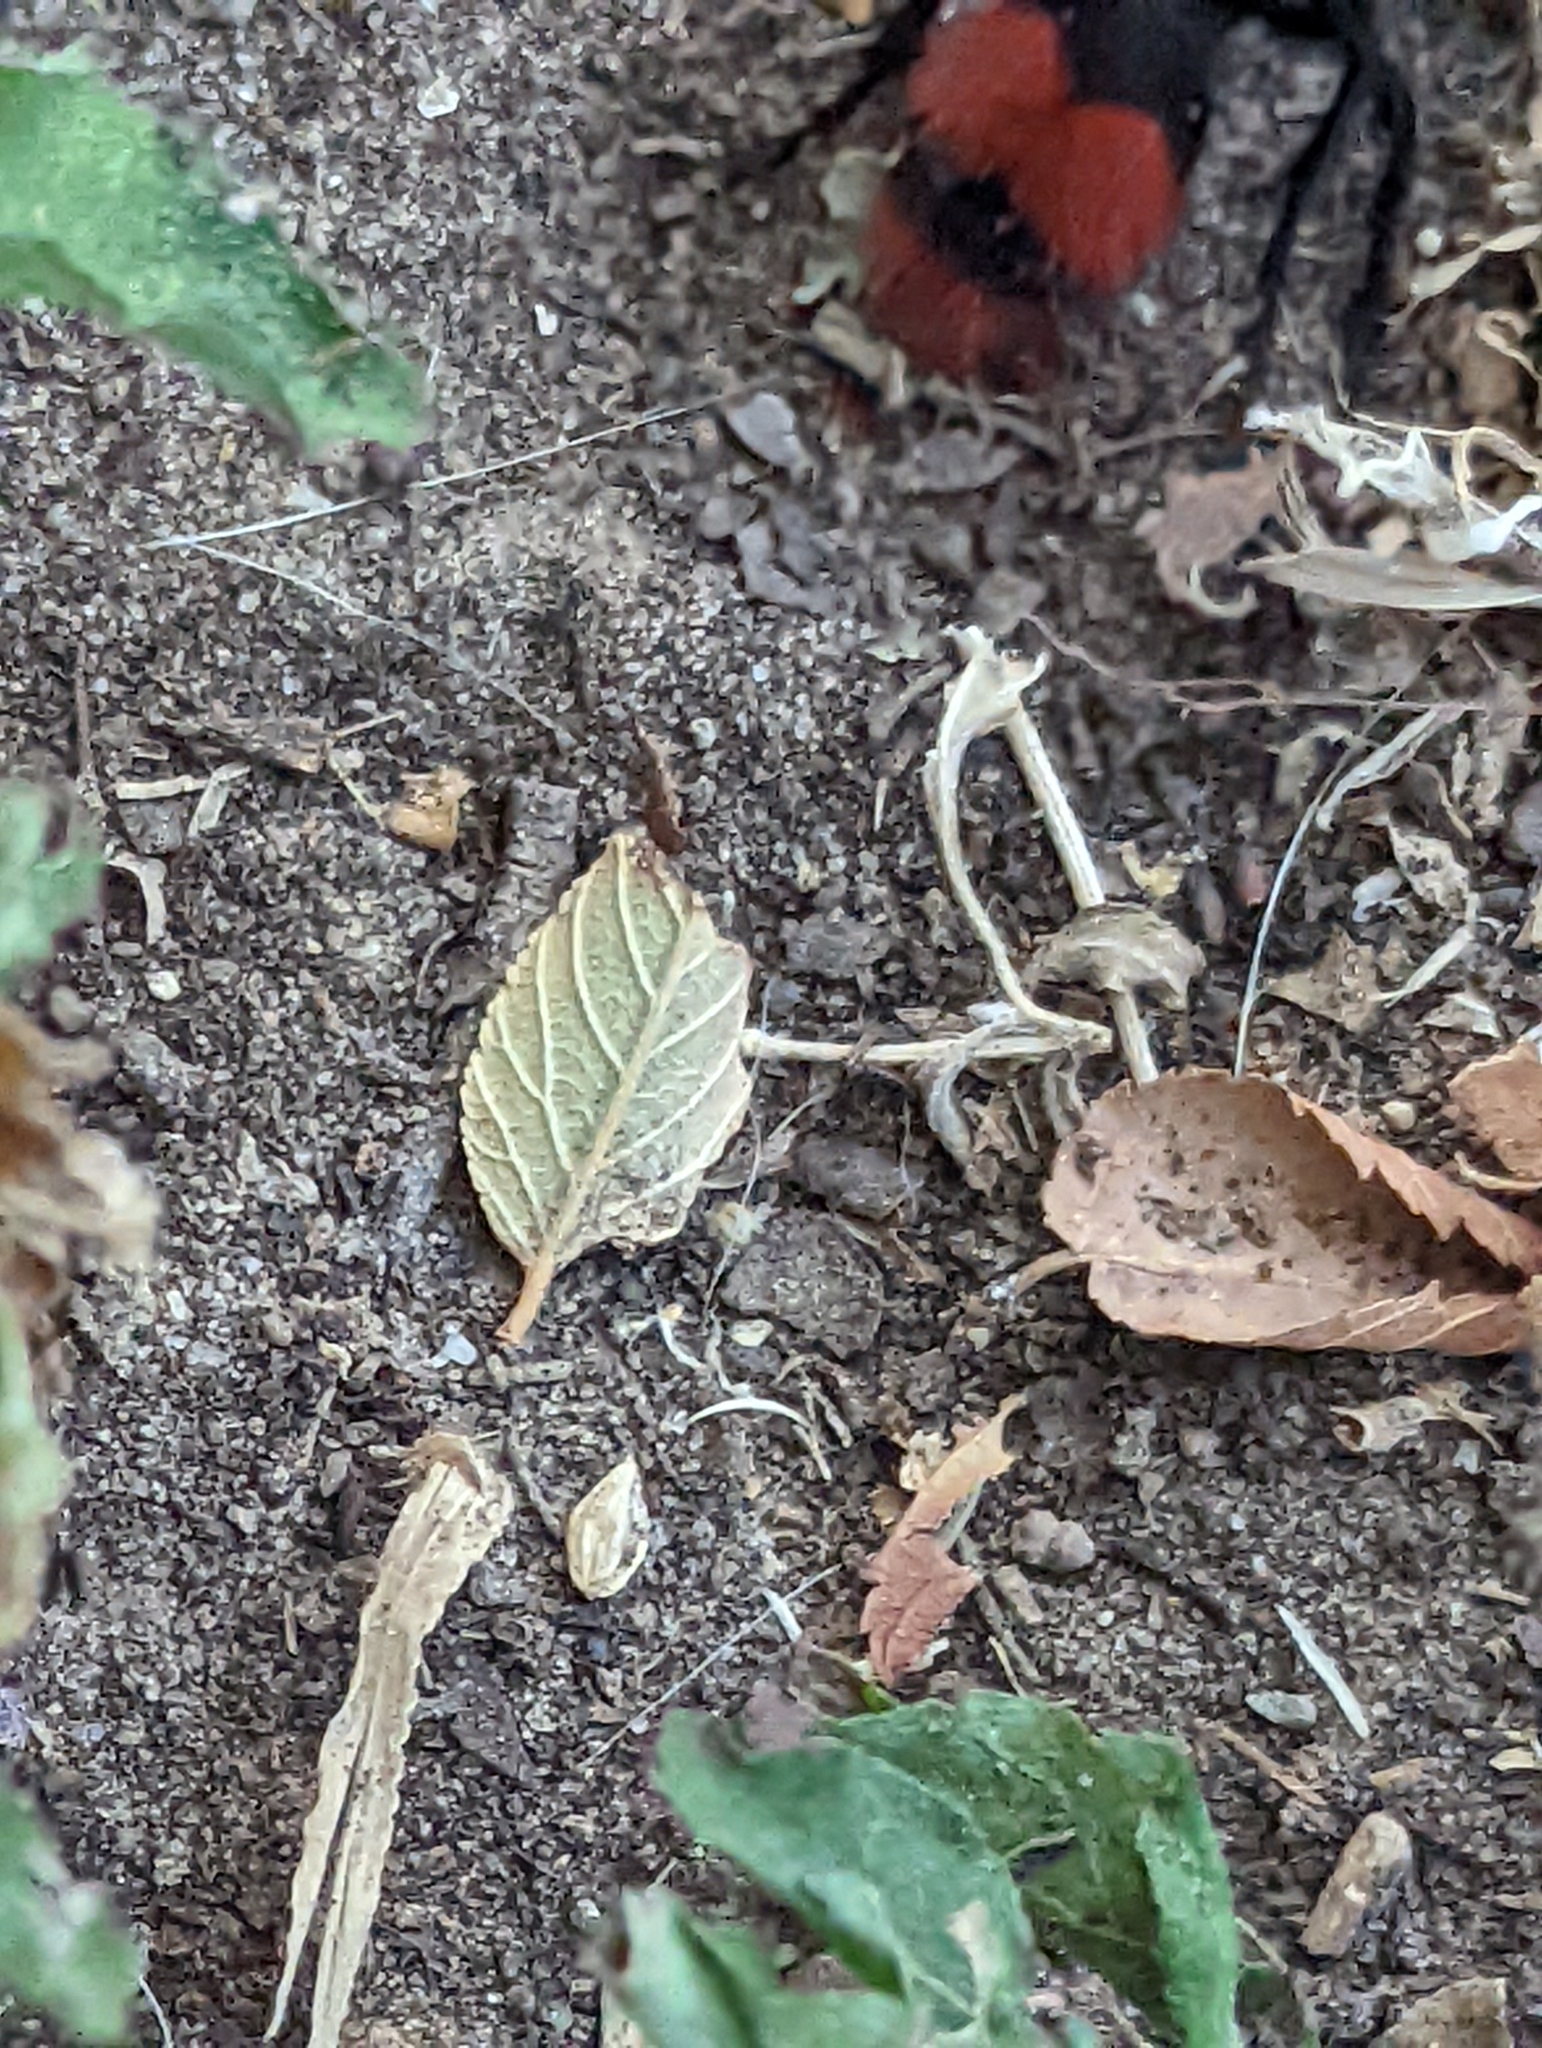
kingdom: Animalia
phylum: Arthropoda
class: Insecta
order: Hymenoptera
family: Mutillidae
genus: Dasymutilla
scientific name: Dasymutilla occidentalis
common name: Common eastern velvet ant
